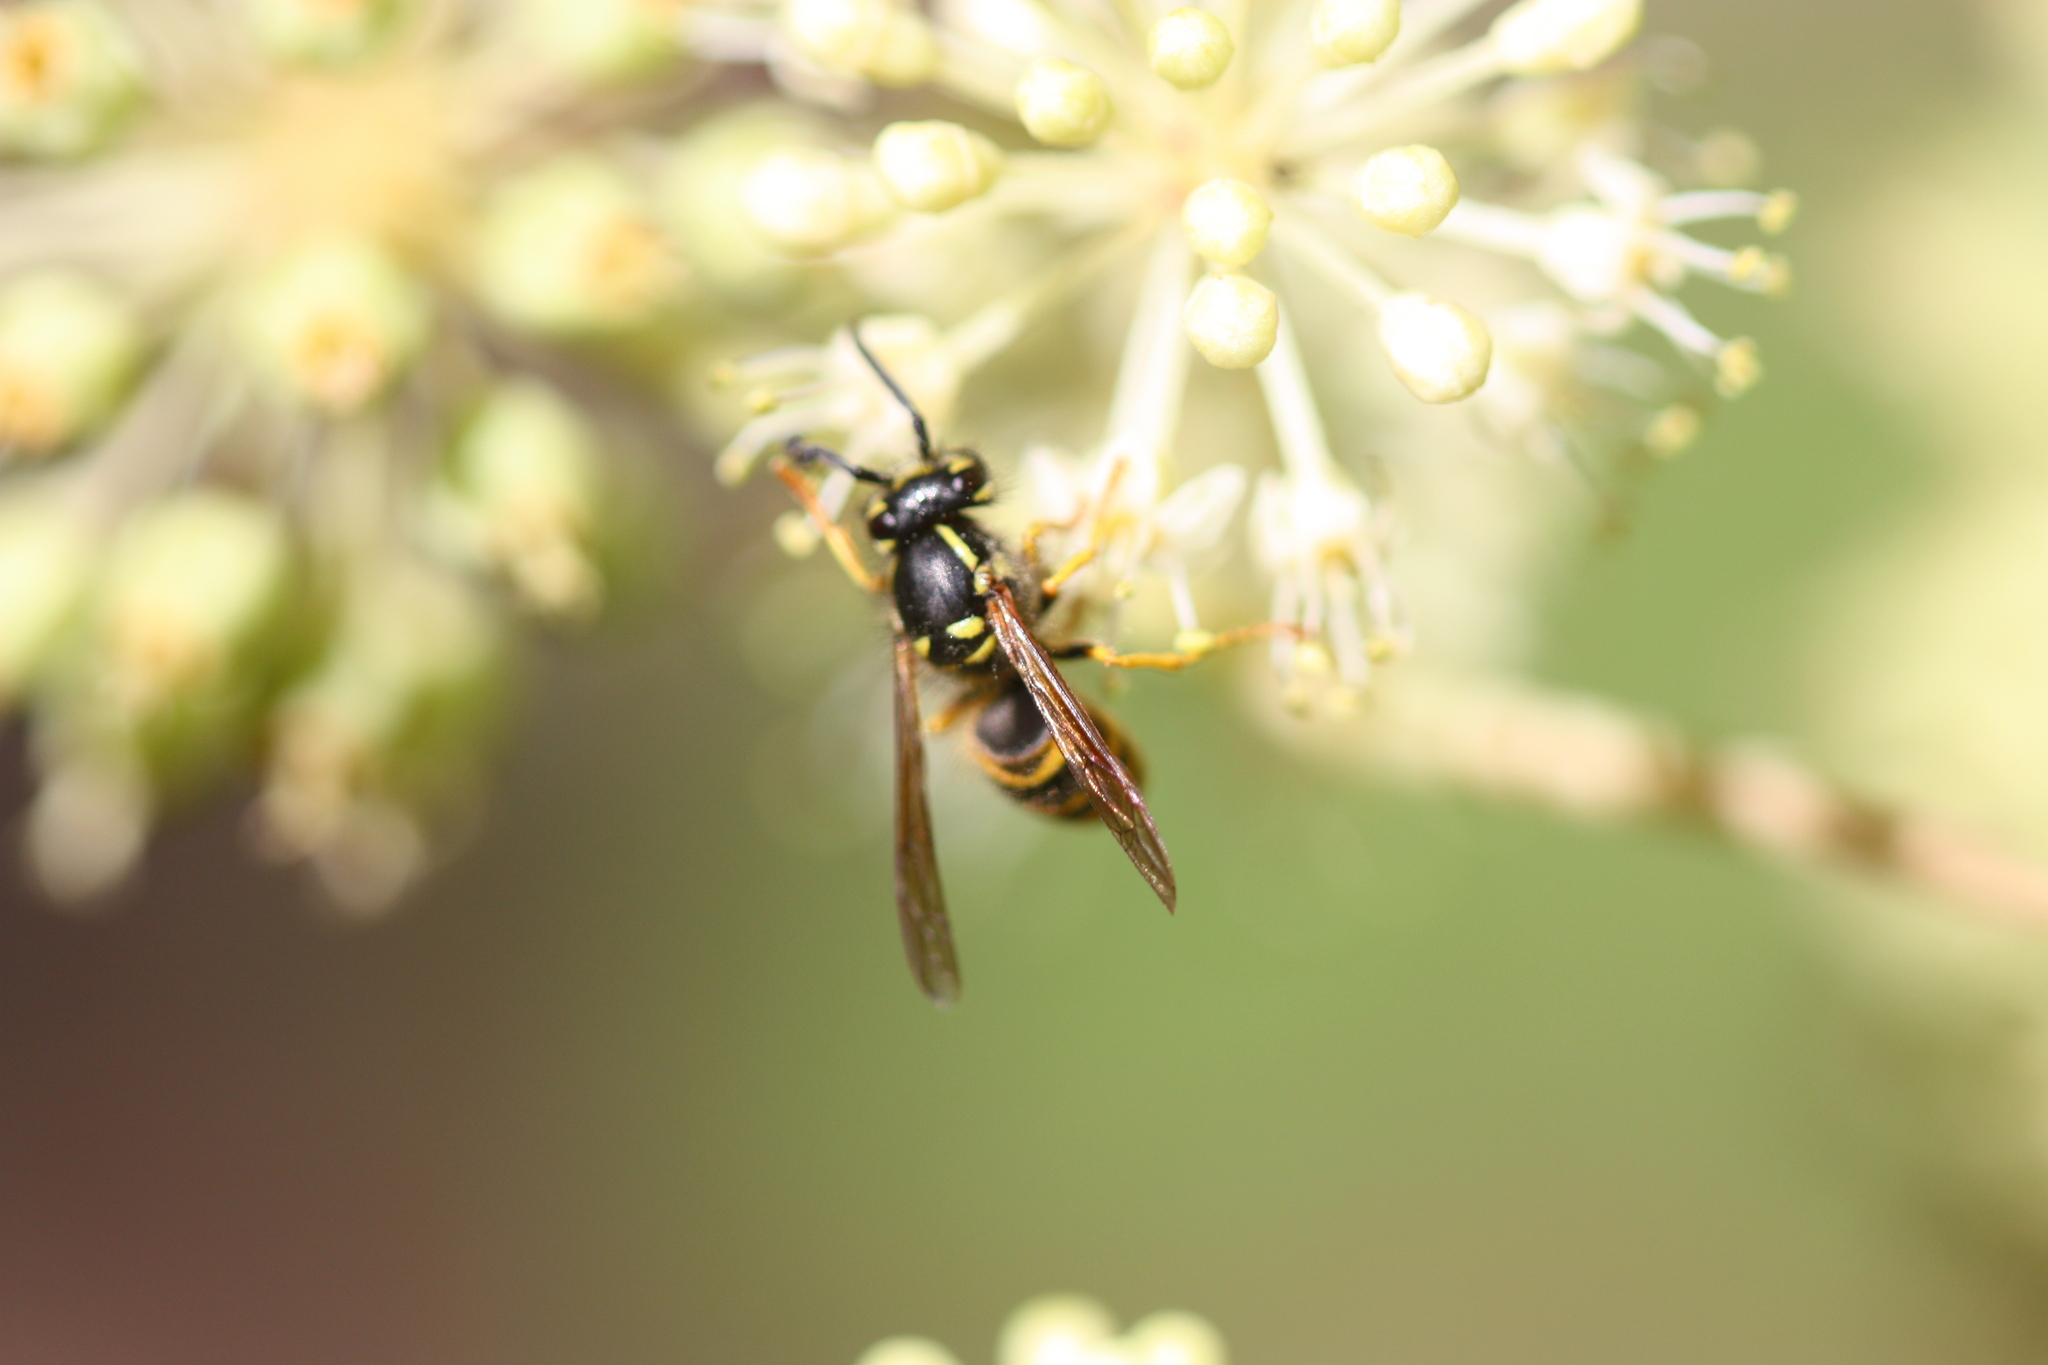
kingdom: Animalia
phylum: Arthropoda
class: Insecta
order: Hymenoptera
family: Vespidae
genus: Vespula
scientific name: Vespula alascensis
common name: Alaska yellowjacket
